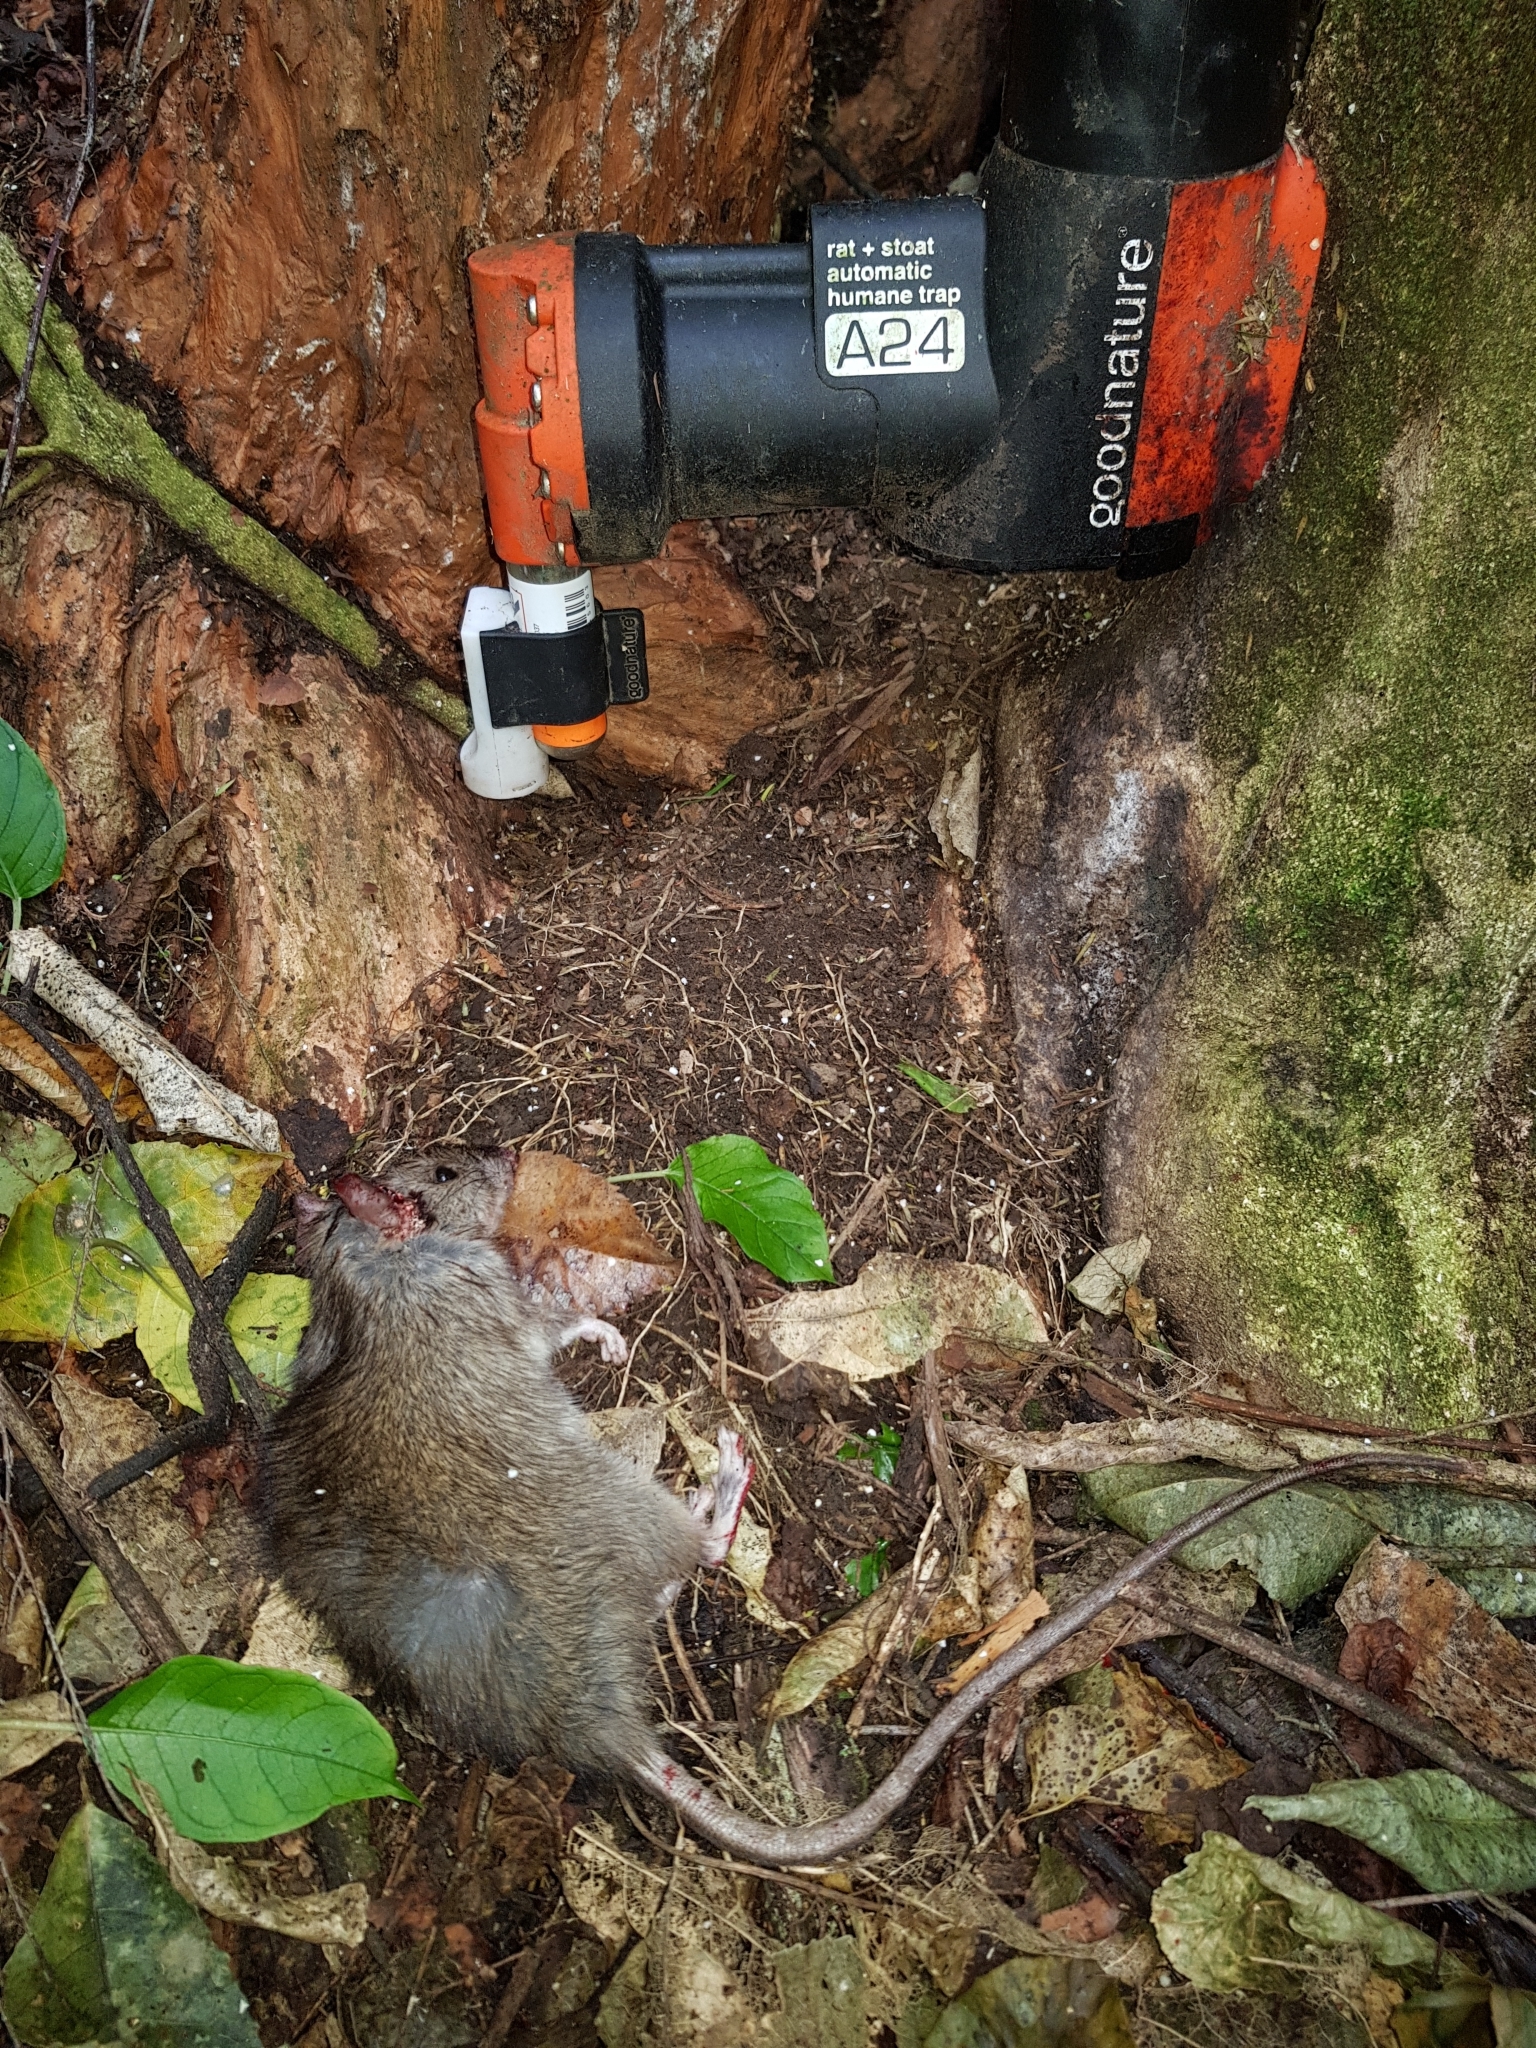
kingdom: Animalia
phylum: Chordata
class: Mammalia
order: Rodentia
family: Muridae
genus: Rattus
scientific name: Rattus rattus
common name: Black rat
